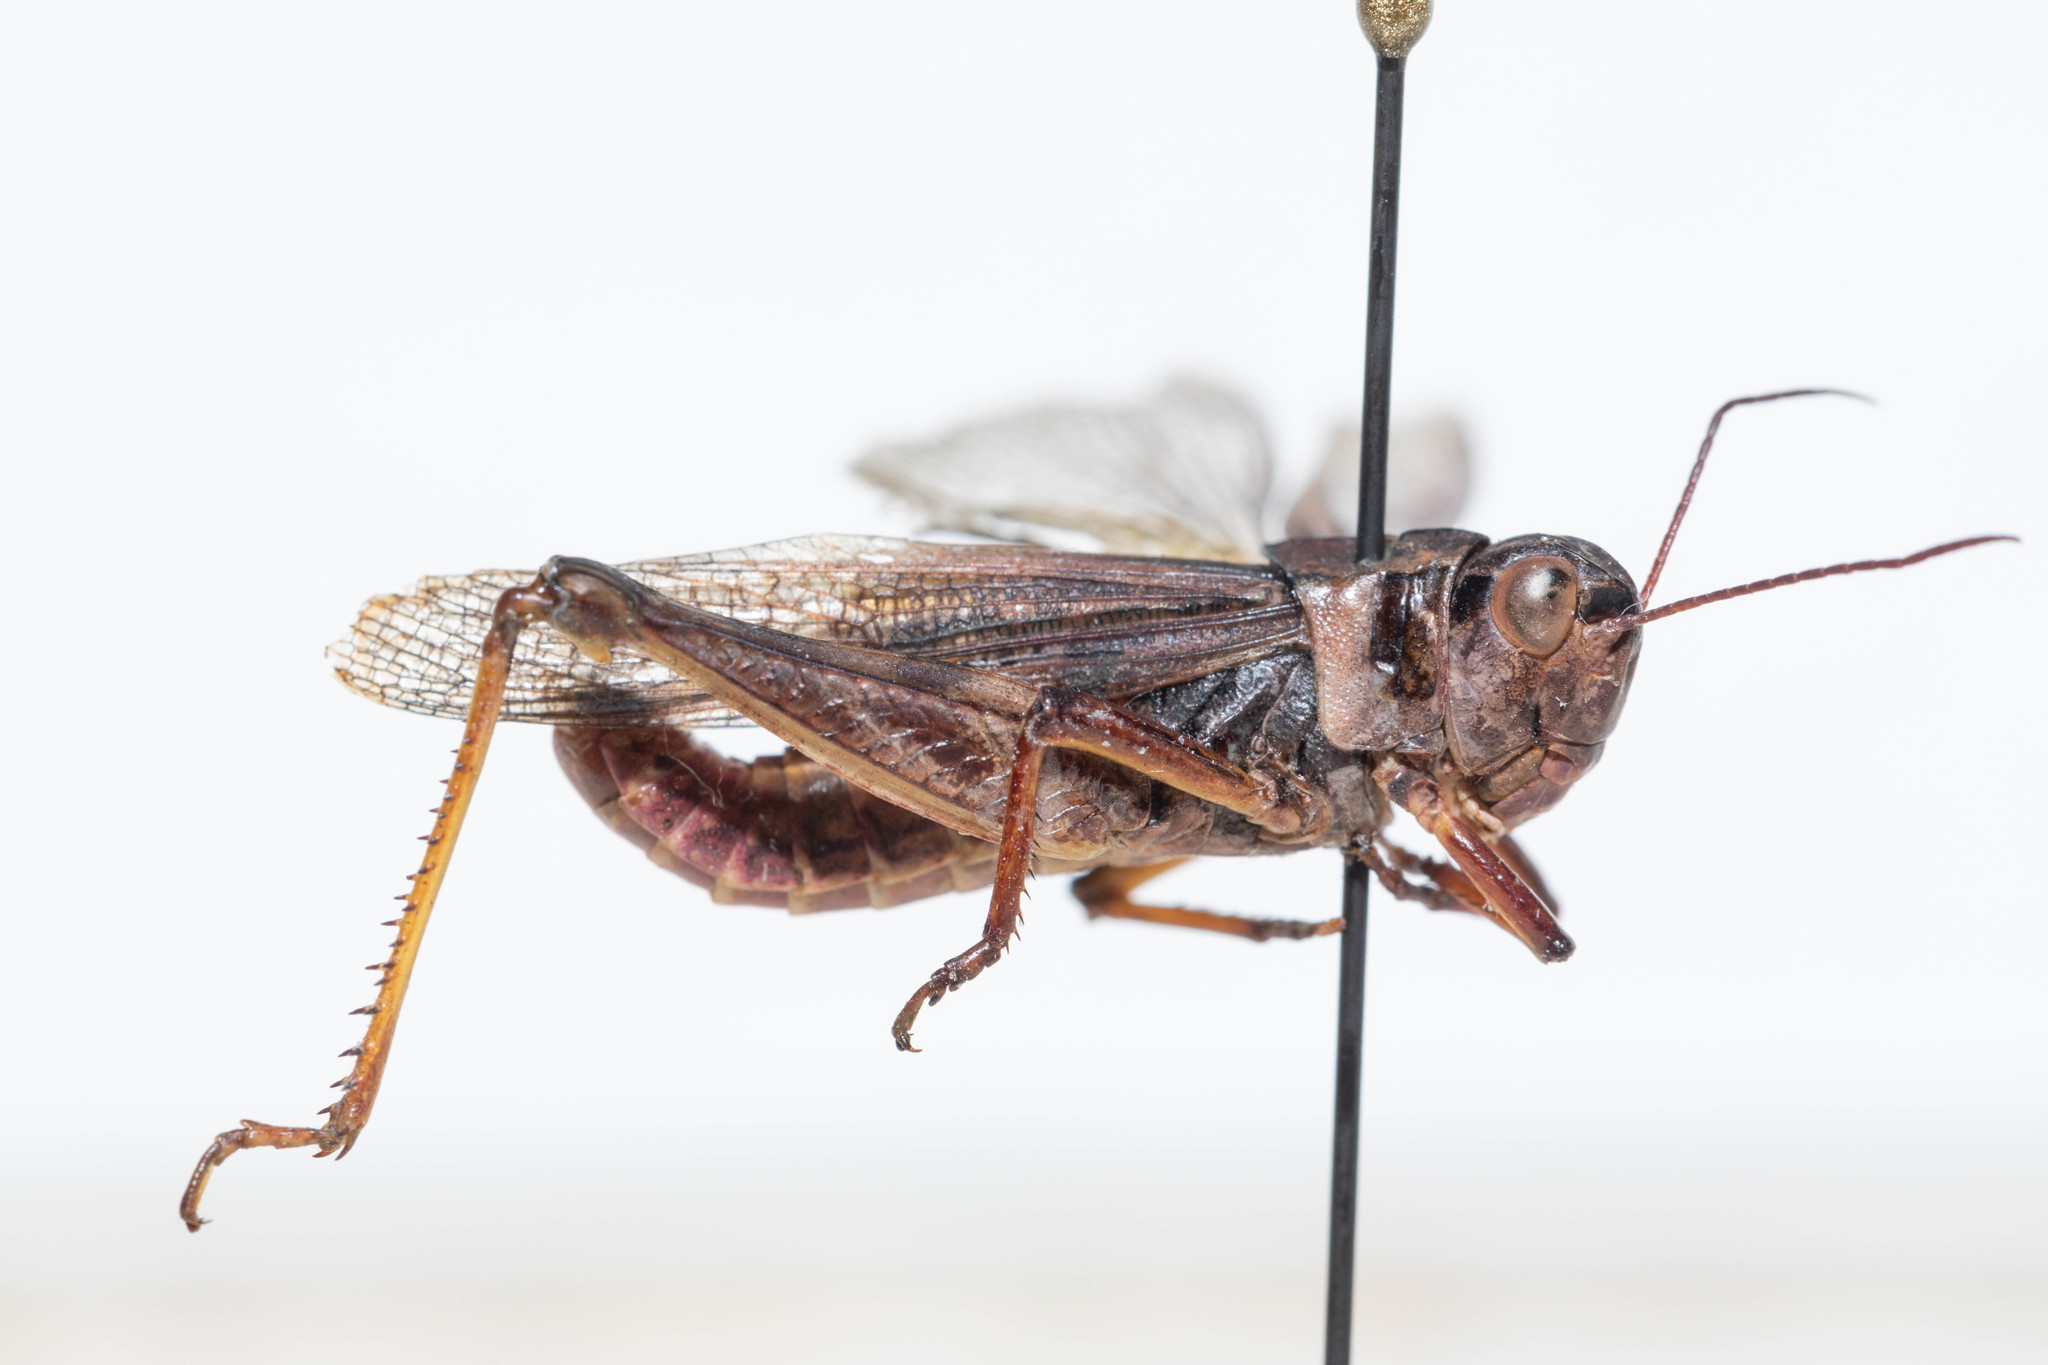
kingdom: Animalia
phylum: Arthropoda
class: Insecta
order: Orthoptera
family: Acrididae
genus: Camnula
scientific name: Camnula pellucida
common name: Clear-winged grasshopper
